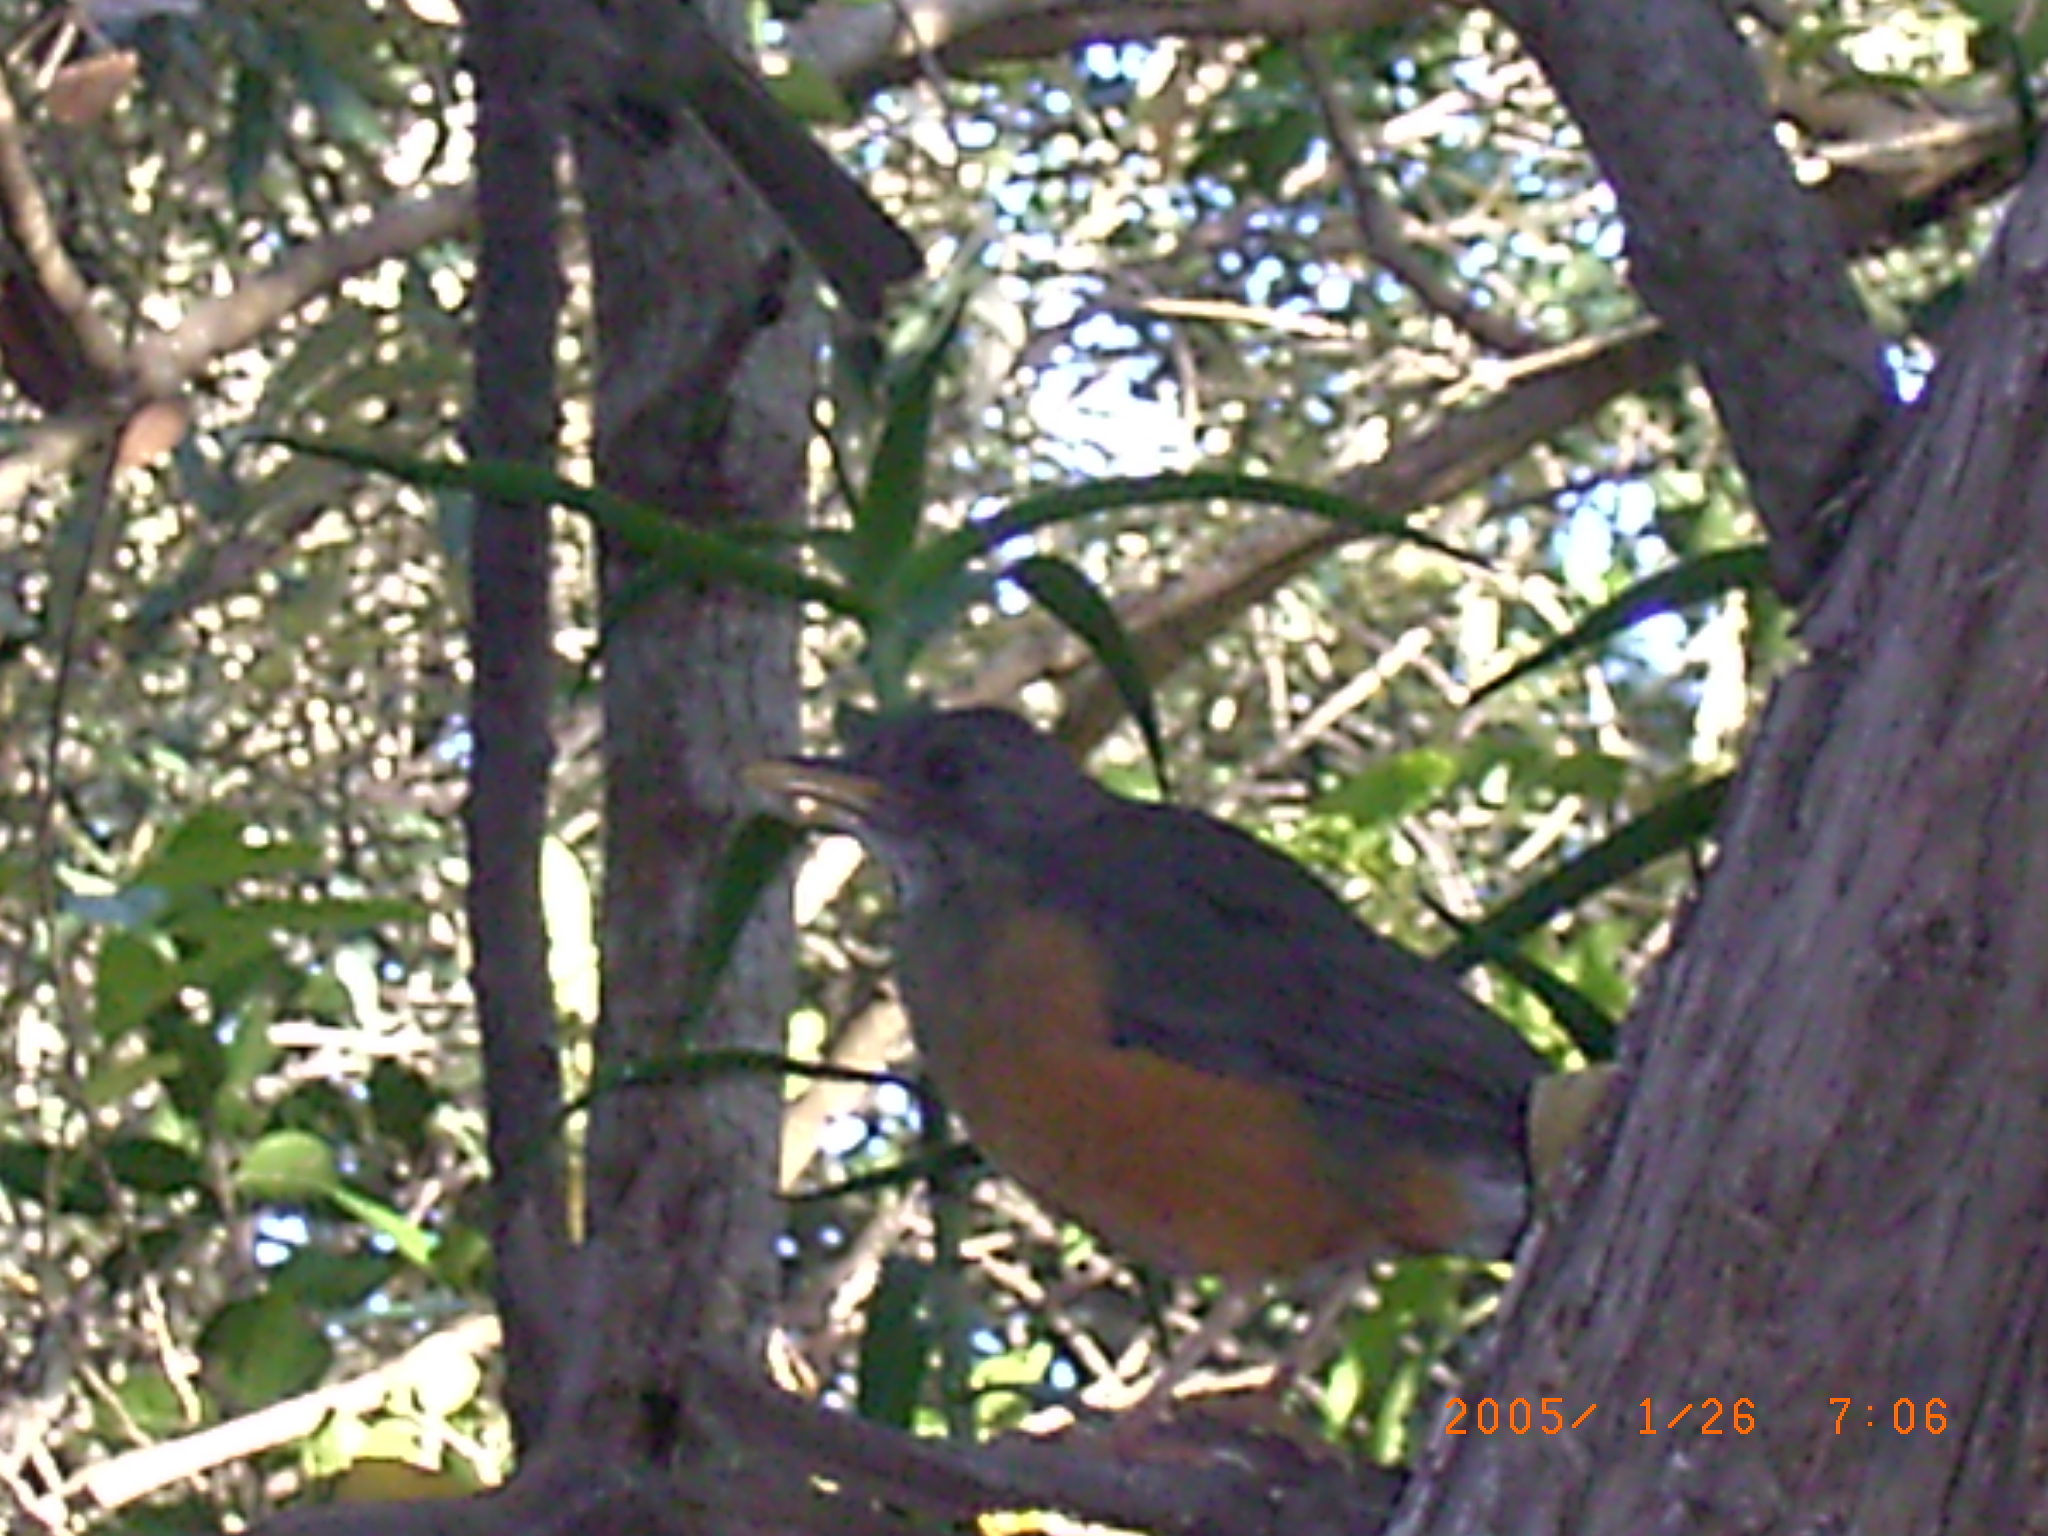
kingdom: Animalia
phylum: Chordata
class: Aves
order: Passeriformes
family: Turdidae
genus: Turdus
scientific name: Turdus olivaceus
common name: Olive thrush
